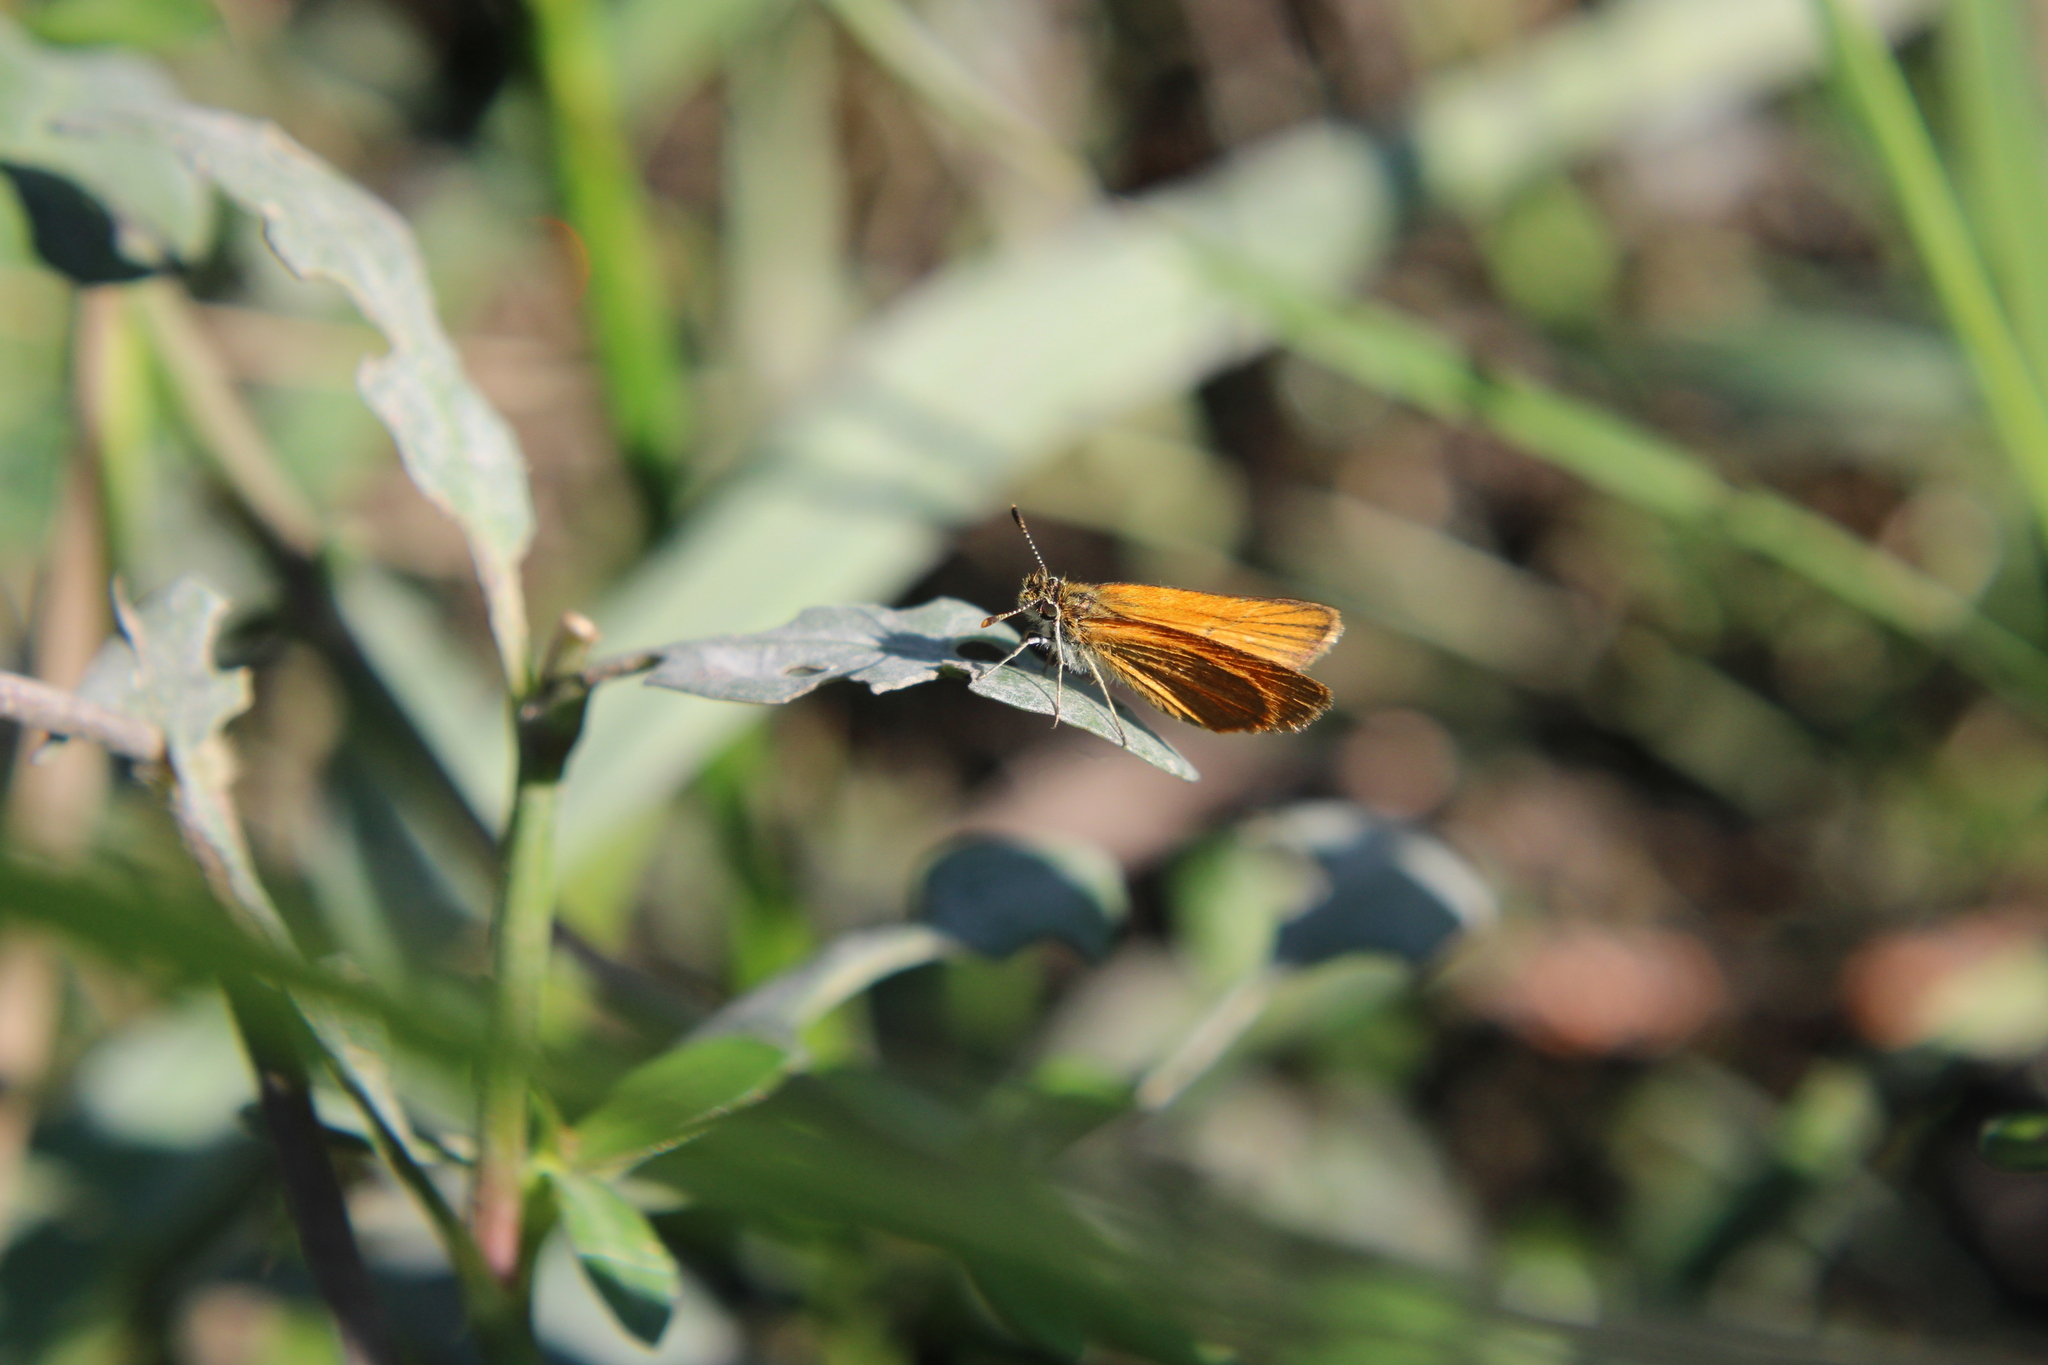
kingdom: Animalia
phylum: Arthropoda
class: Insecta
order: Lepidoptera
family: Hesperiidae
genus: Ancyloxypha
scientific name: Ancyloxypha nitedula
